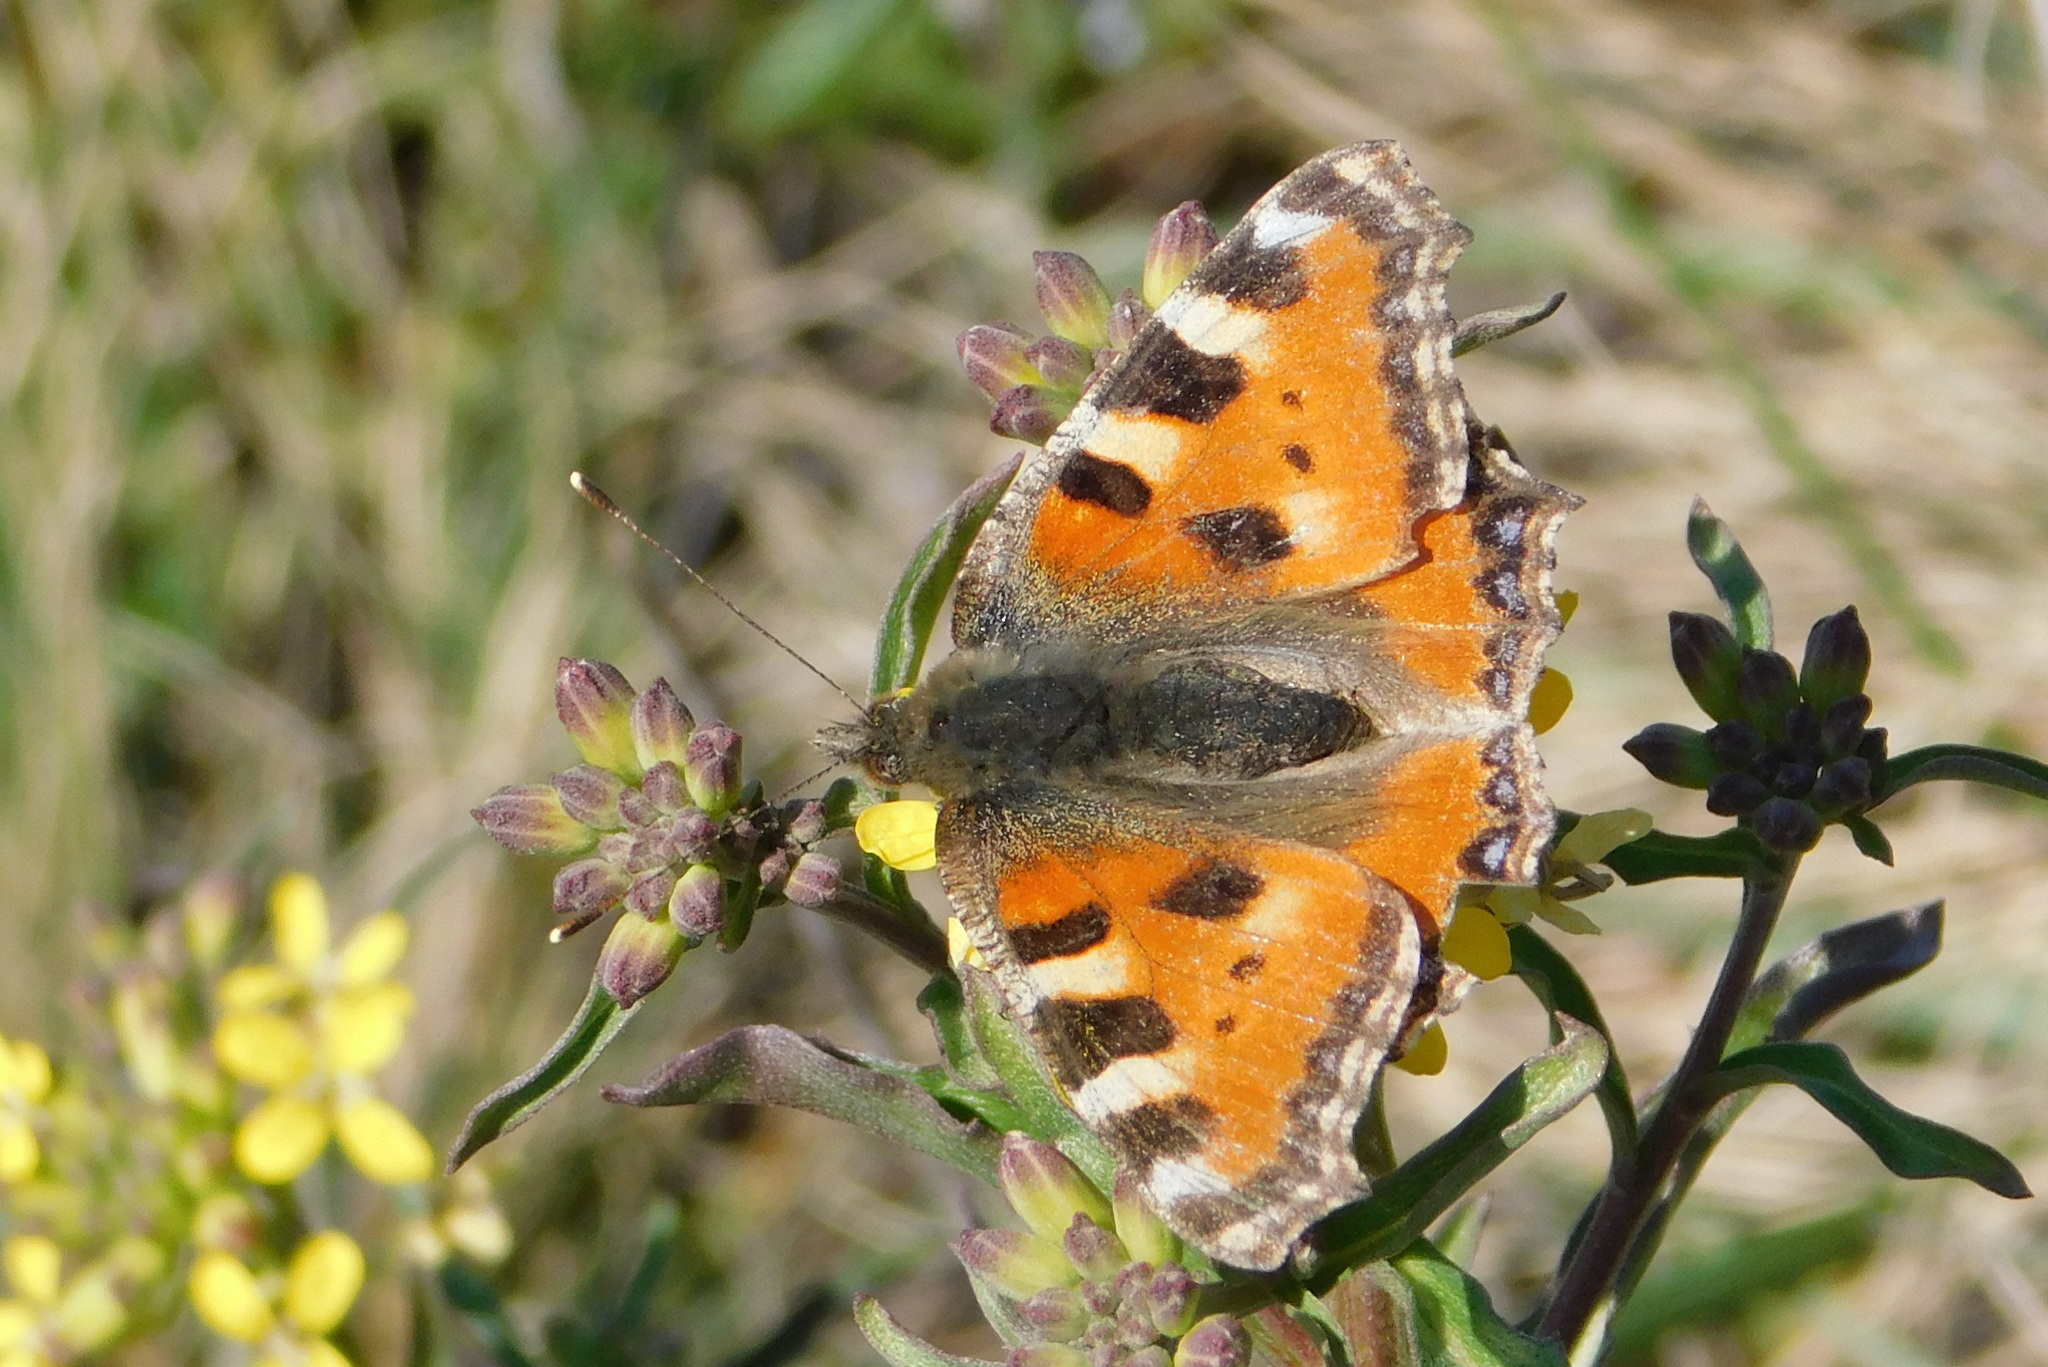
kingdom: Animalia
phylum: Arthropoda
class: Insecta
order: Lepidoptera
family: Nymphalidae
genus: Aglais
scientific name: Aglais urticae
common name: Small tortoiseshell
